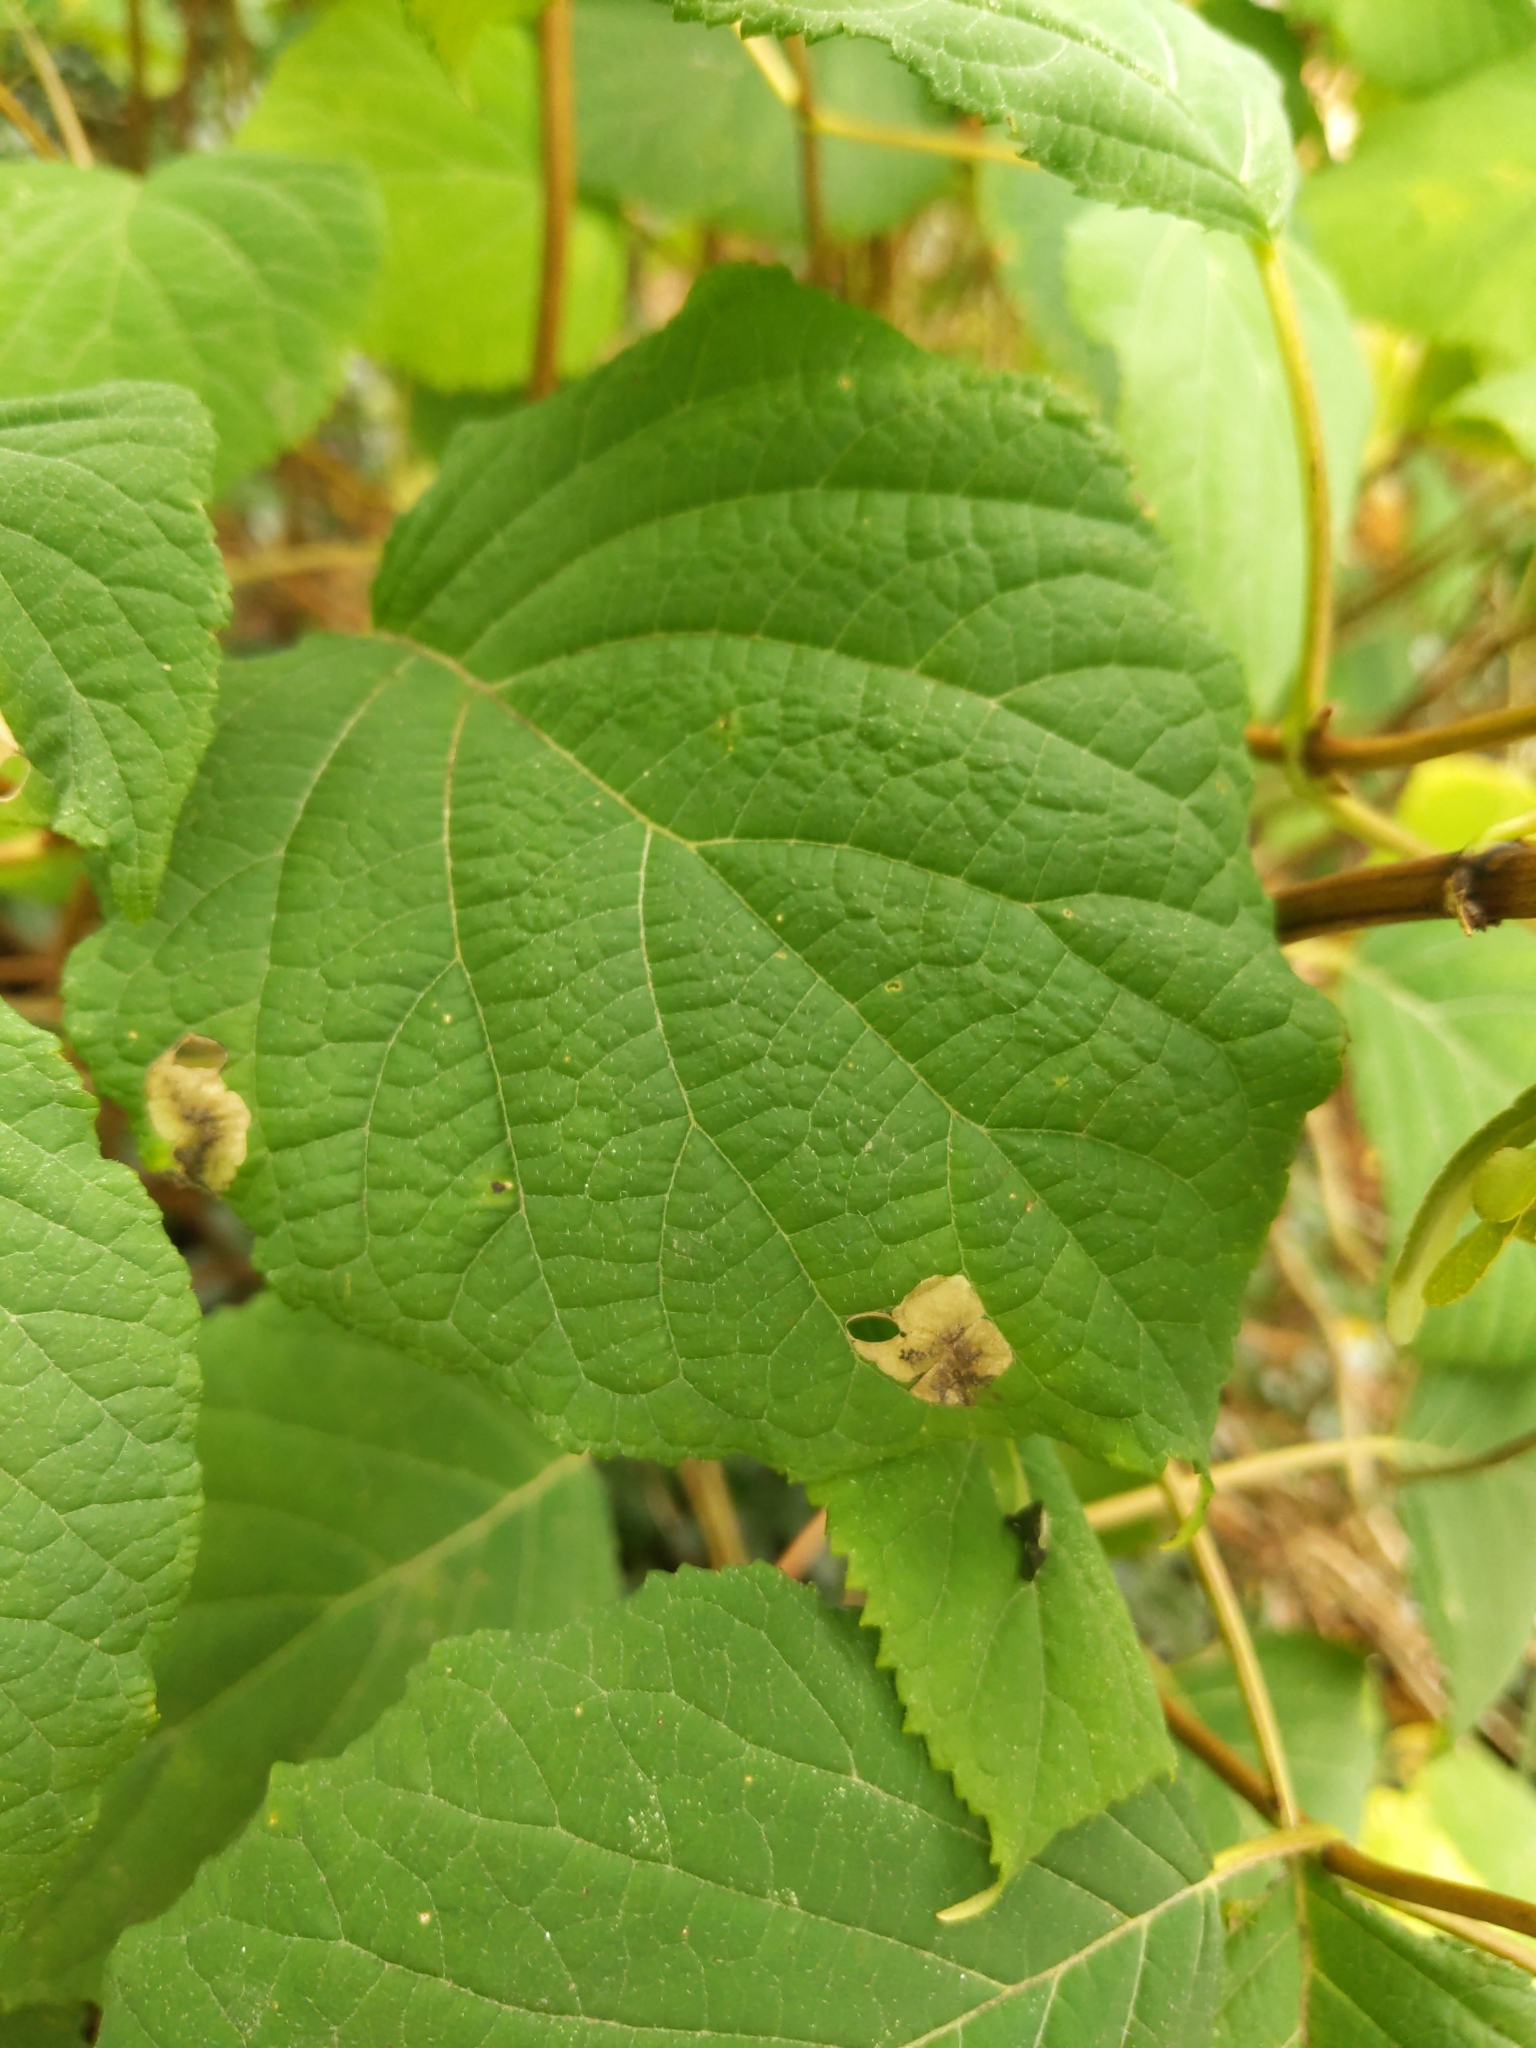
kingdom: Animalia
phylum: Arthropoda
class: Insecta
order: Lepidoptera
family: Heliozelidae
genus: Aspilanta
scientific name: Aspilanta hydrangaeella
